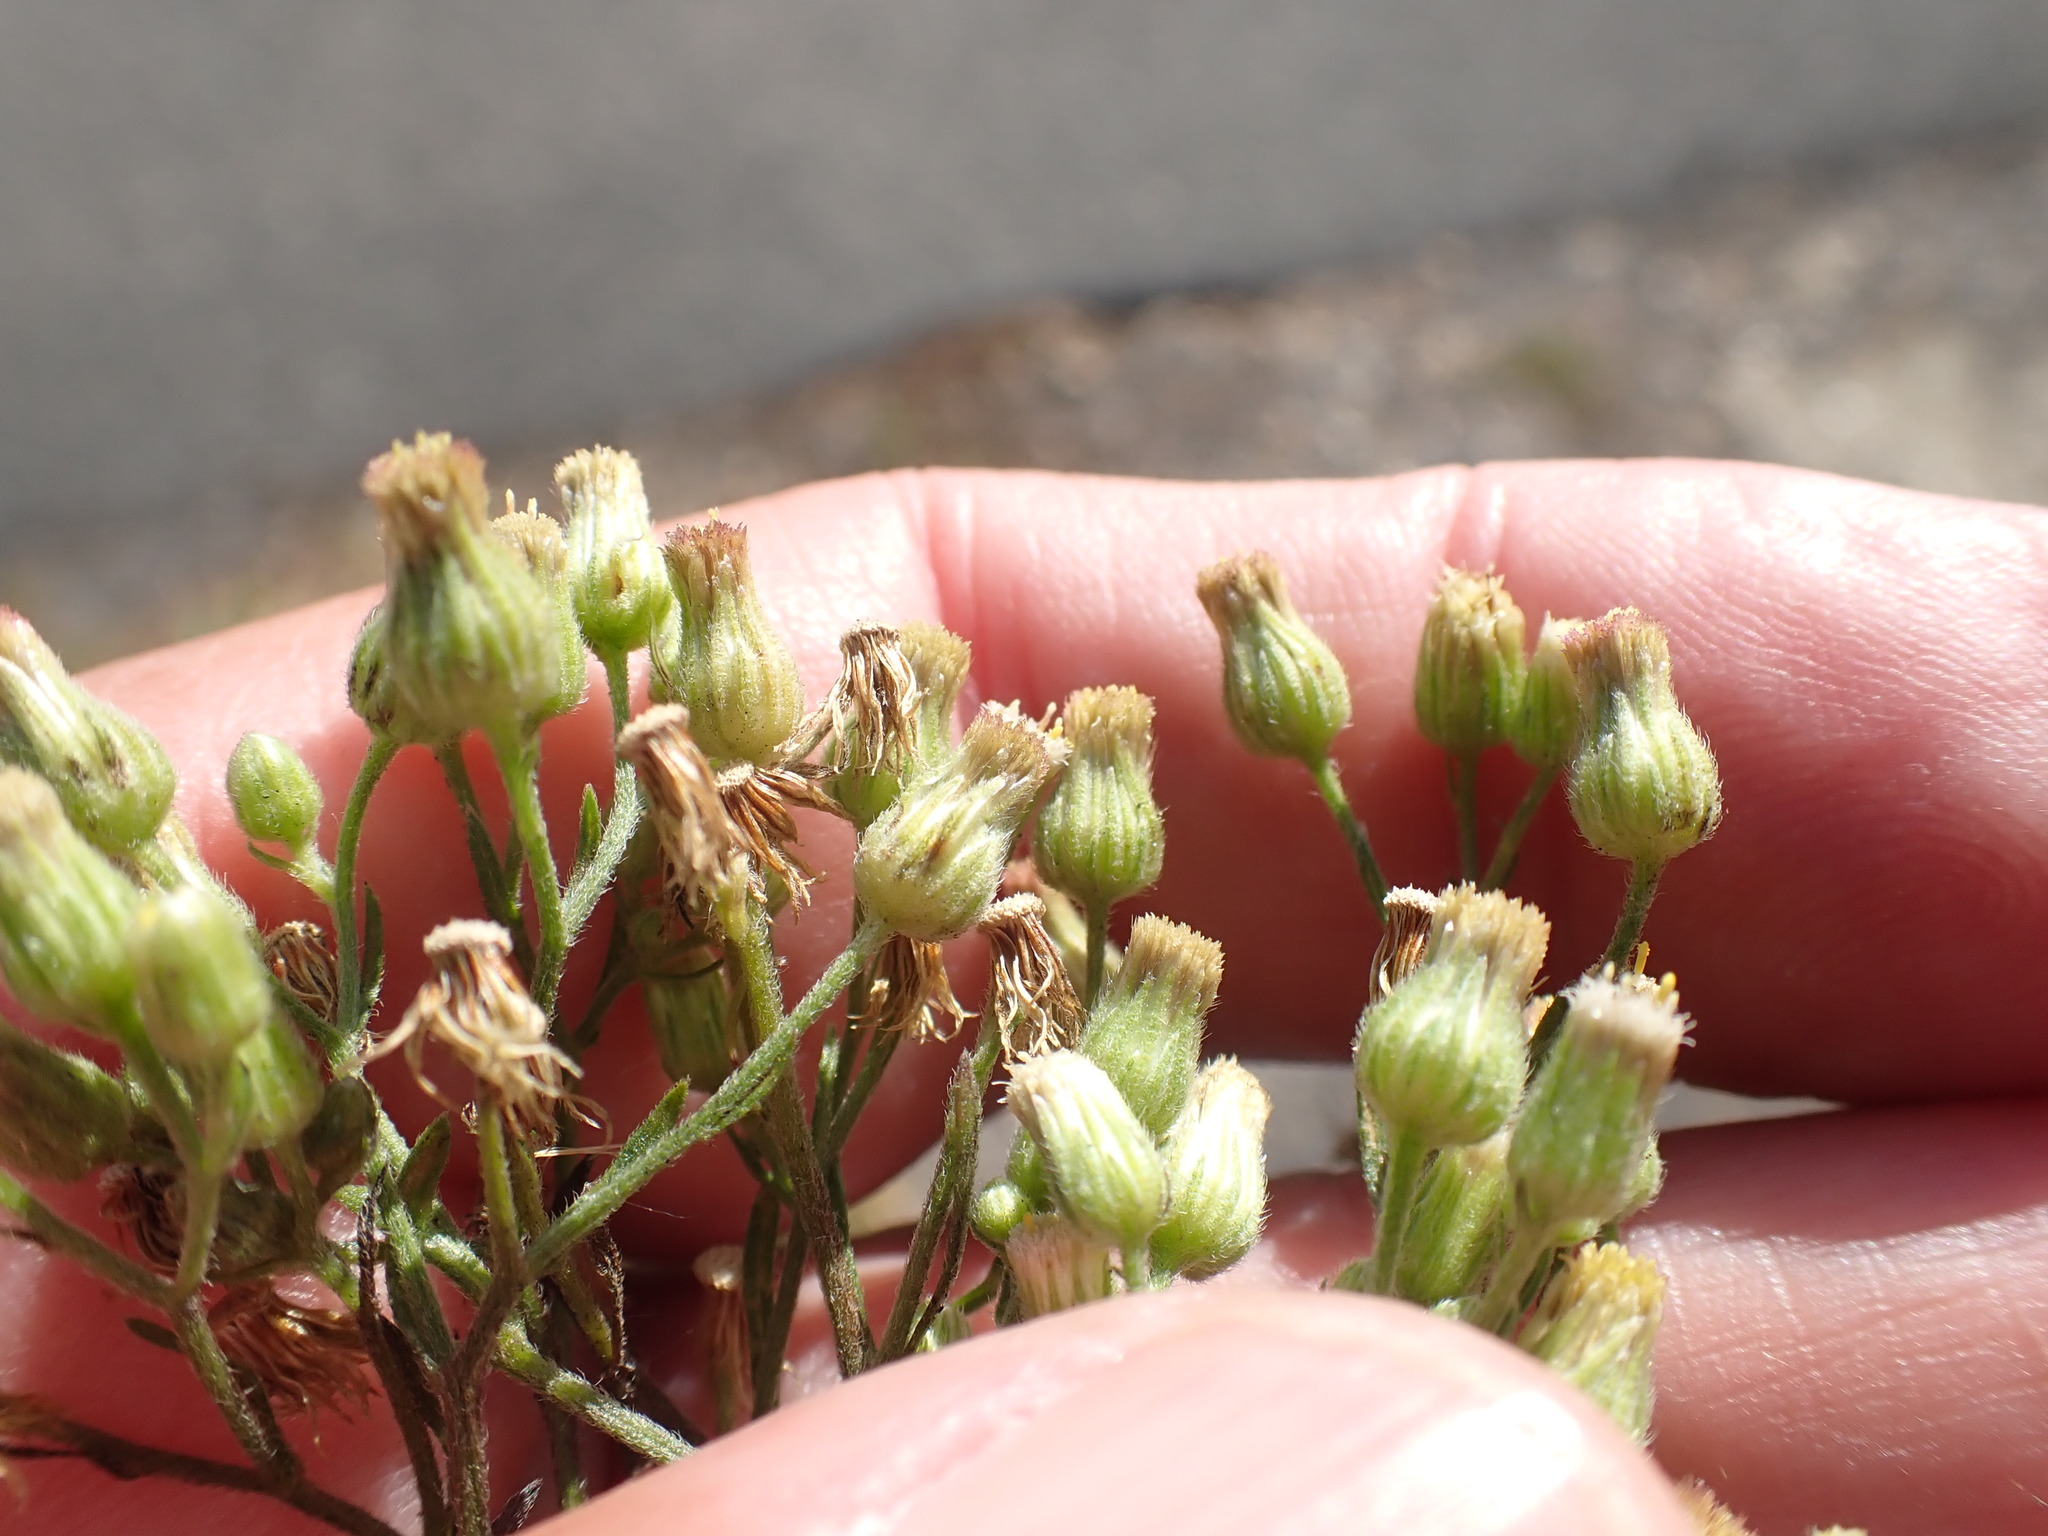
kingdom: Plantae
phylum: Tracheophyta
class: Magnoliopsida
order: Asterales
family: Asteraceae
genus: Erigeron
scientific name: Erigeron sumatrensis
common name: Daisy
